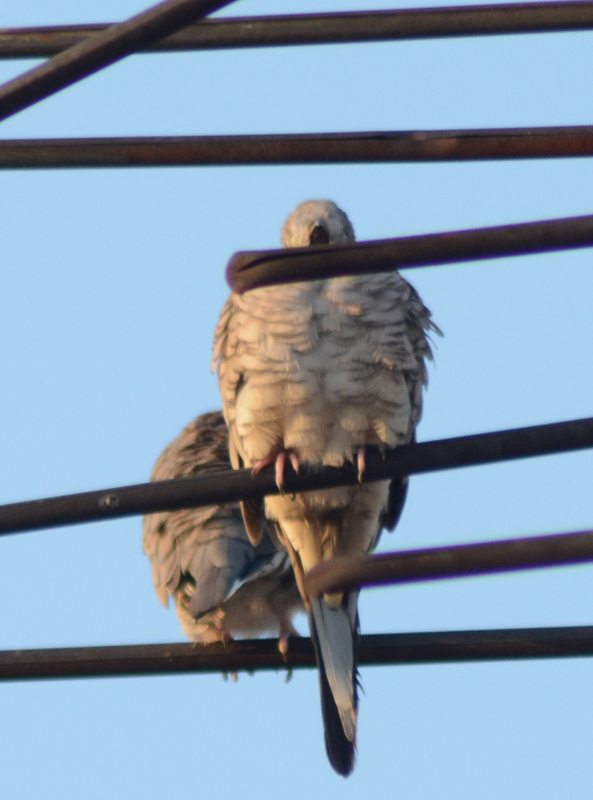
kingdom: Animalia
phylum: Chordata
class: Aves
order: Columbiformes
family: Columbidae
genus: Columbina
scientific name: Columbina inca
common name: Inca dove
